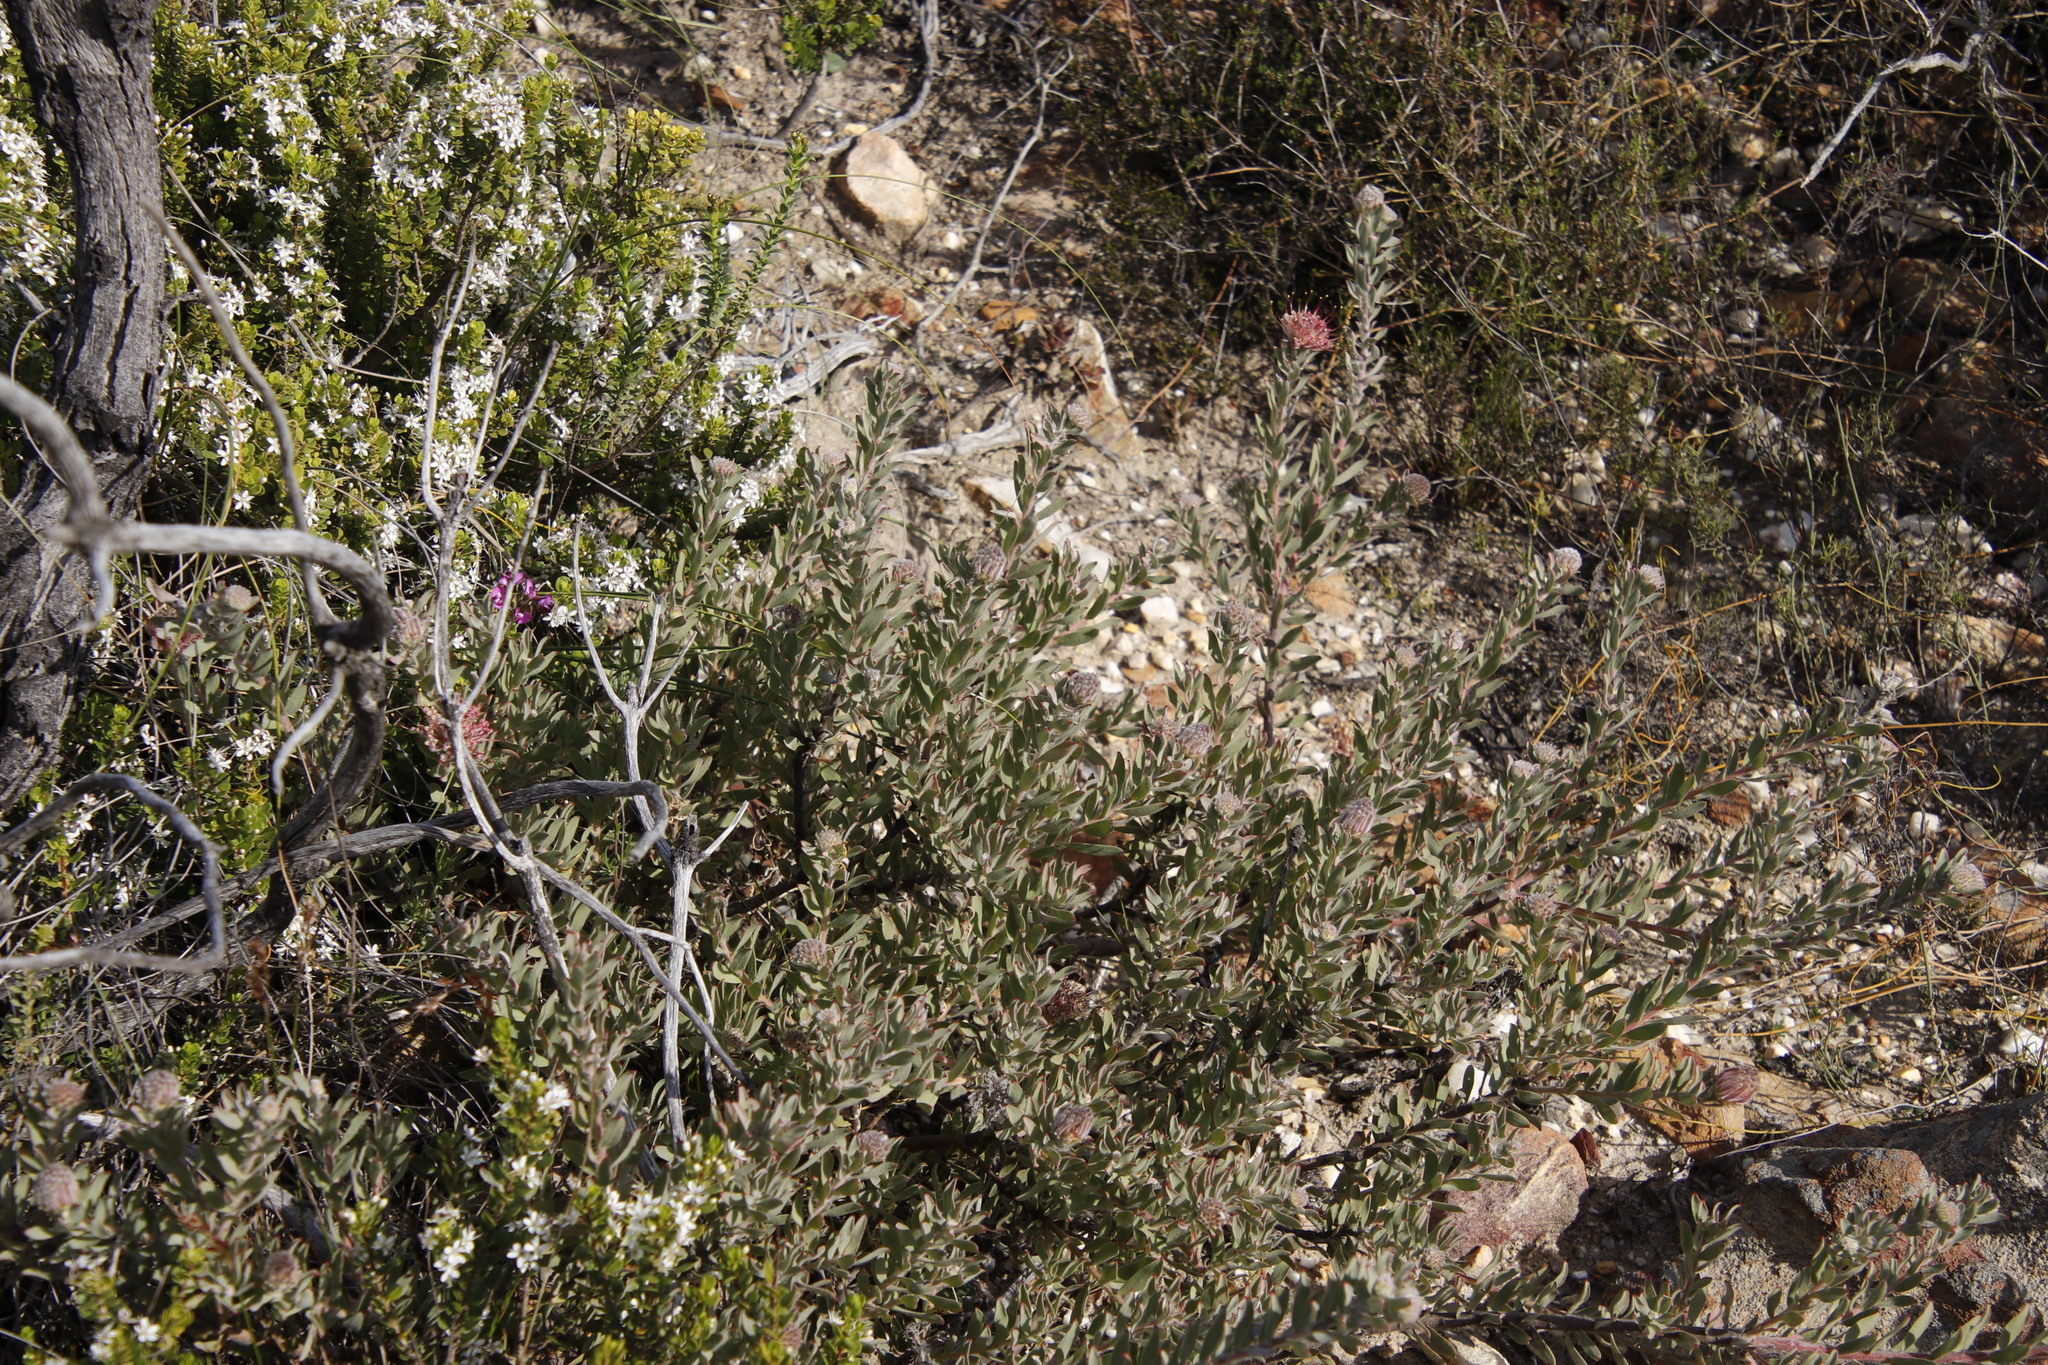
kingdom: Plantae
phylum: Tracheophyta
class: Magnoliopsida
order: Proteales
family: Proteaceae
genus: Leucospermum
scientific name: Leucospermum calligerum
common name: Arid pincushion
